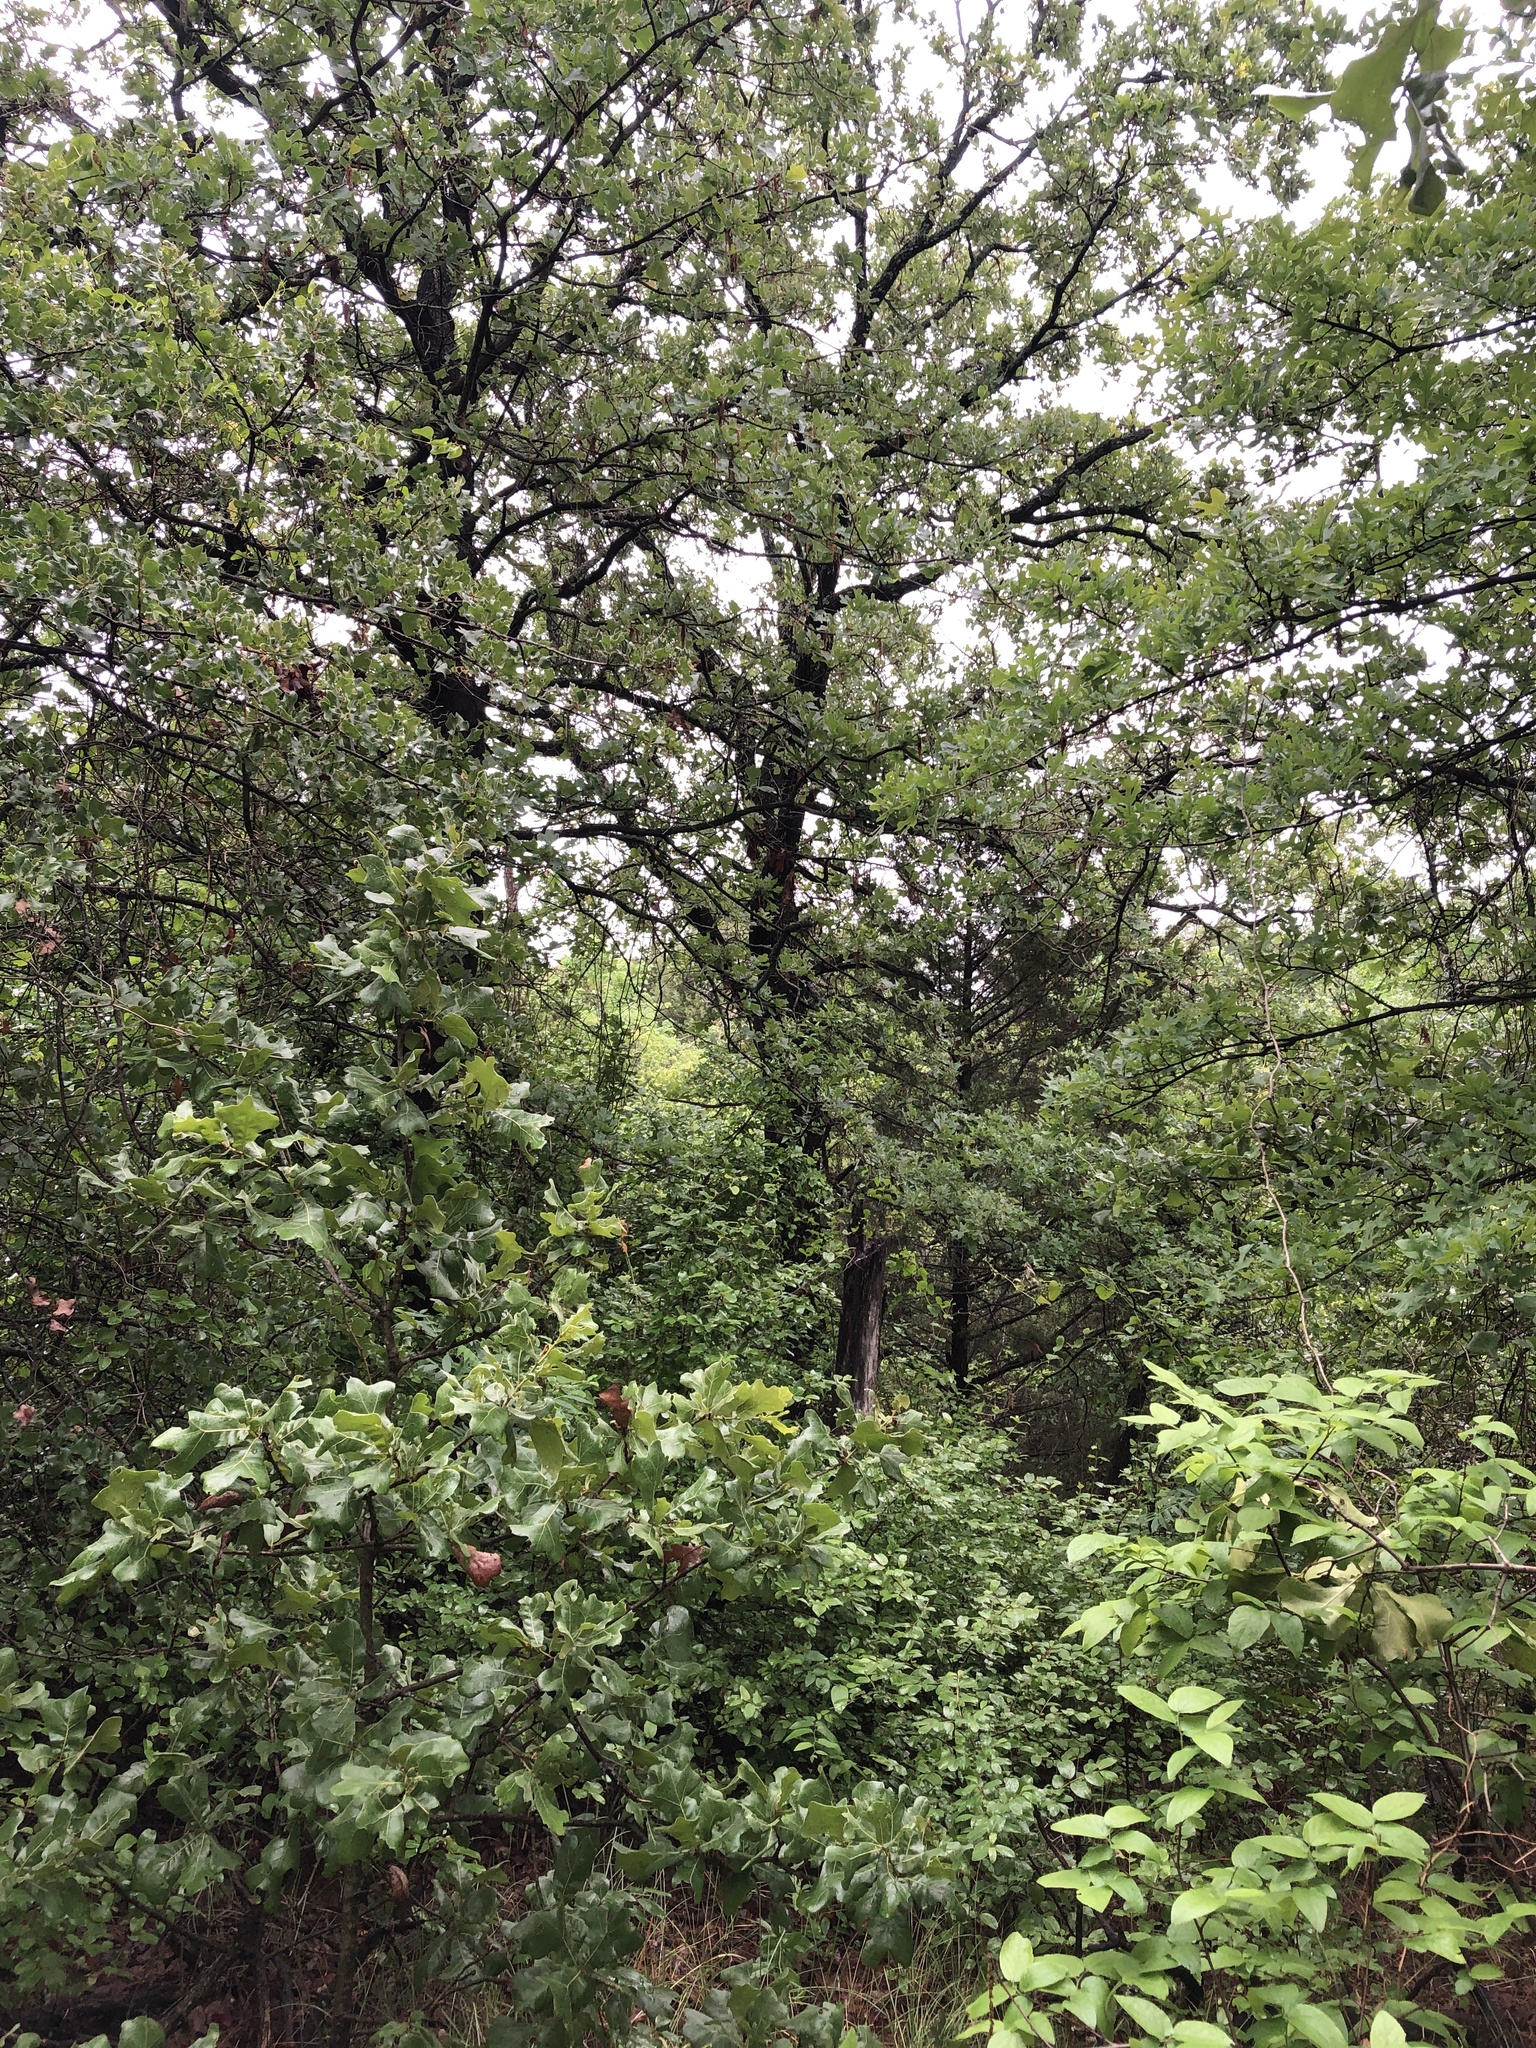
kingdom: Animalia
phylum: Chordata
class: Aves
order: Passeriformes
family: Cardinalidae
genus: Cardinalis
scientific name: Cardinalis cardinalis
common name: Northern cardinal
